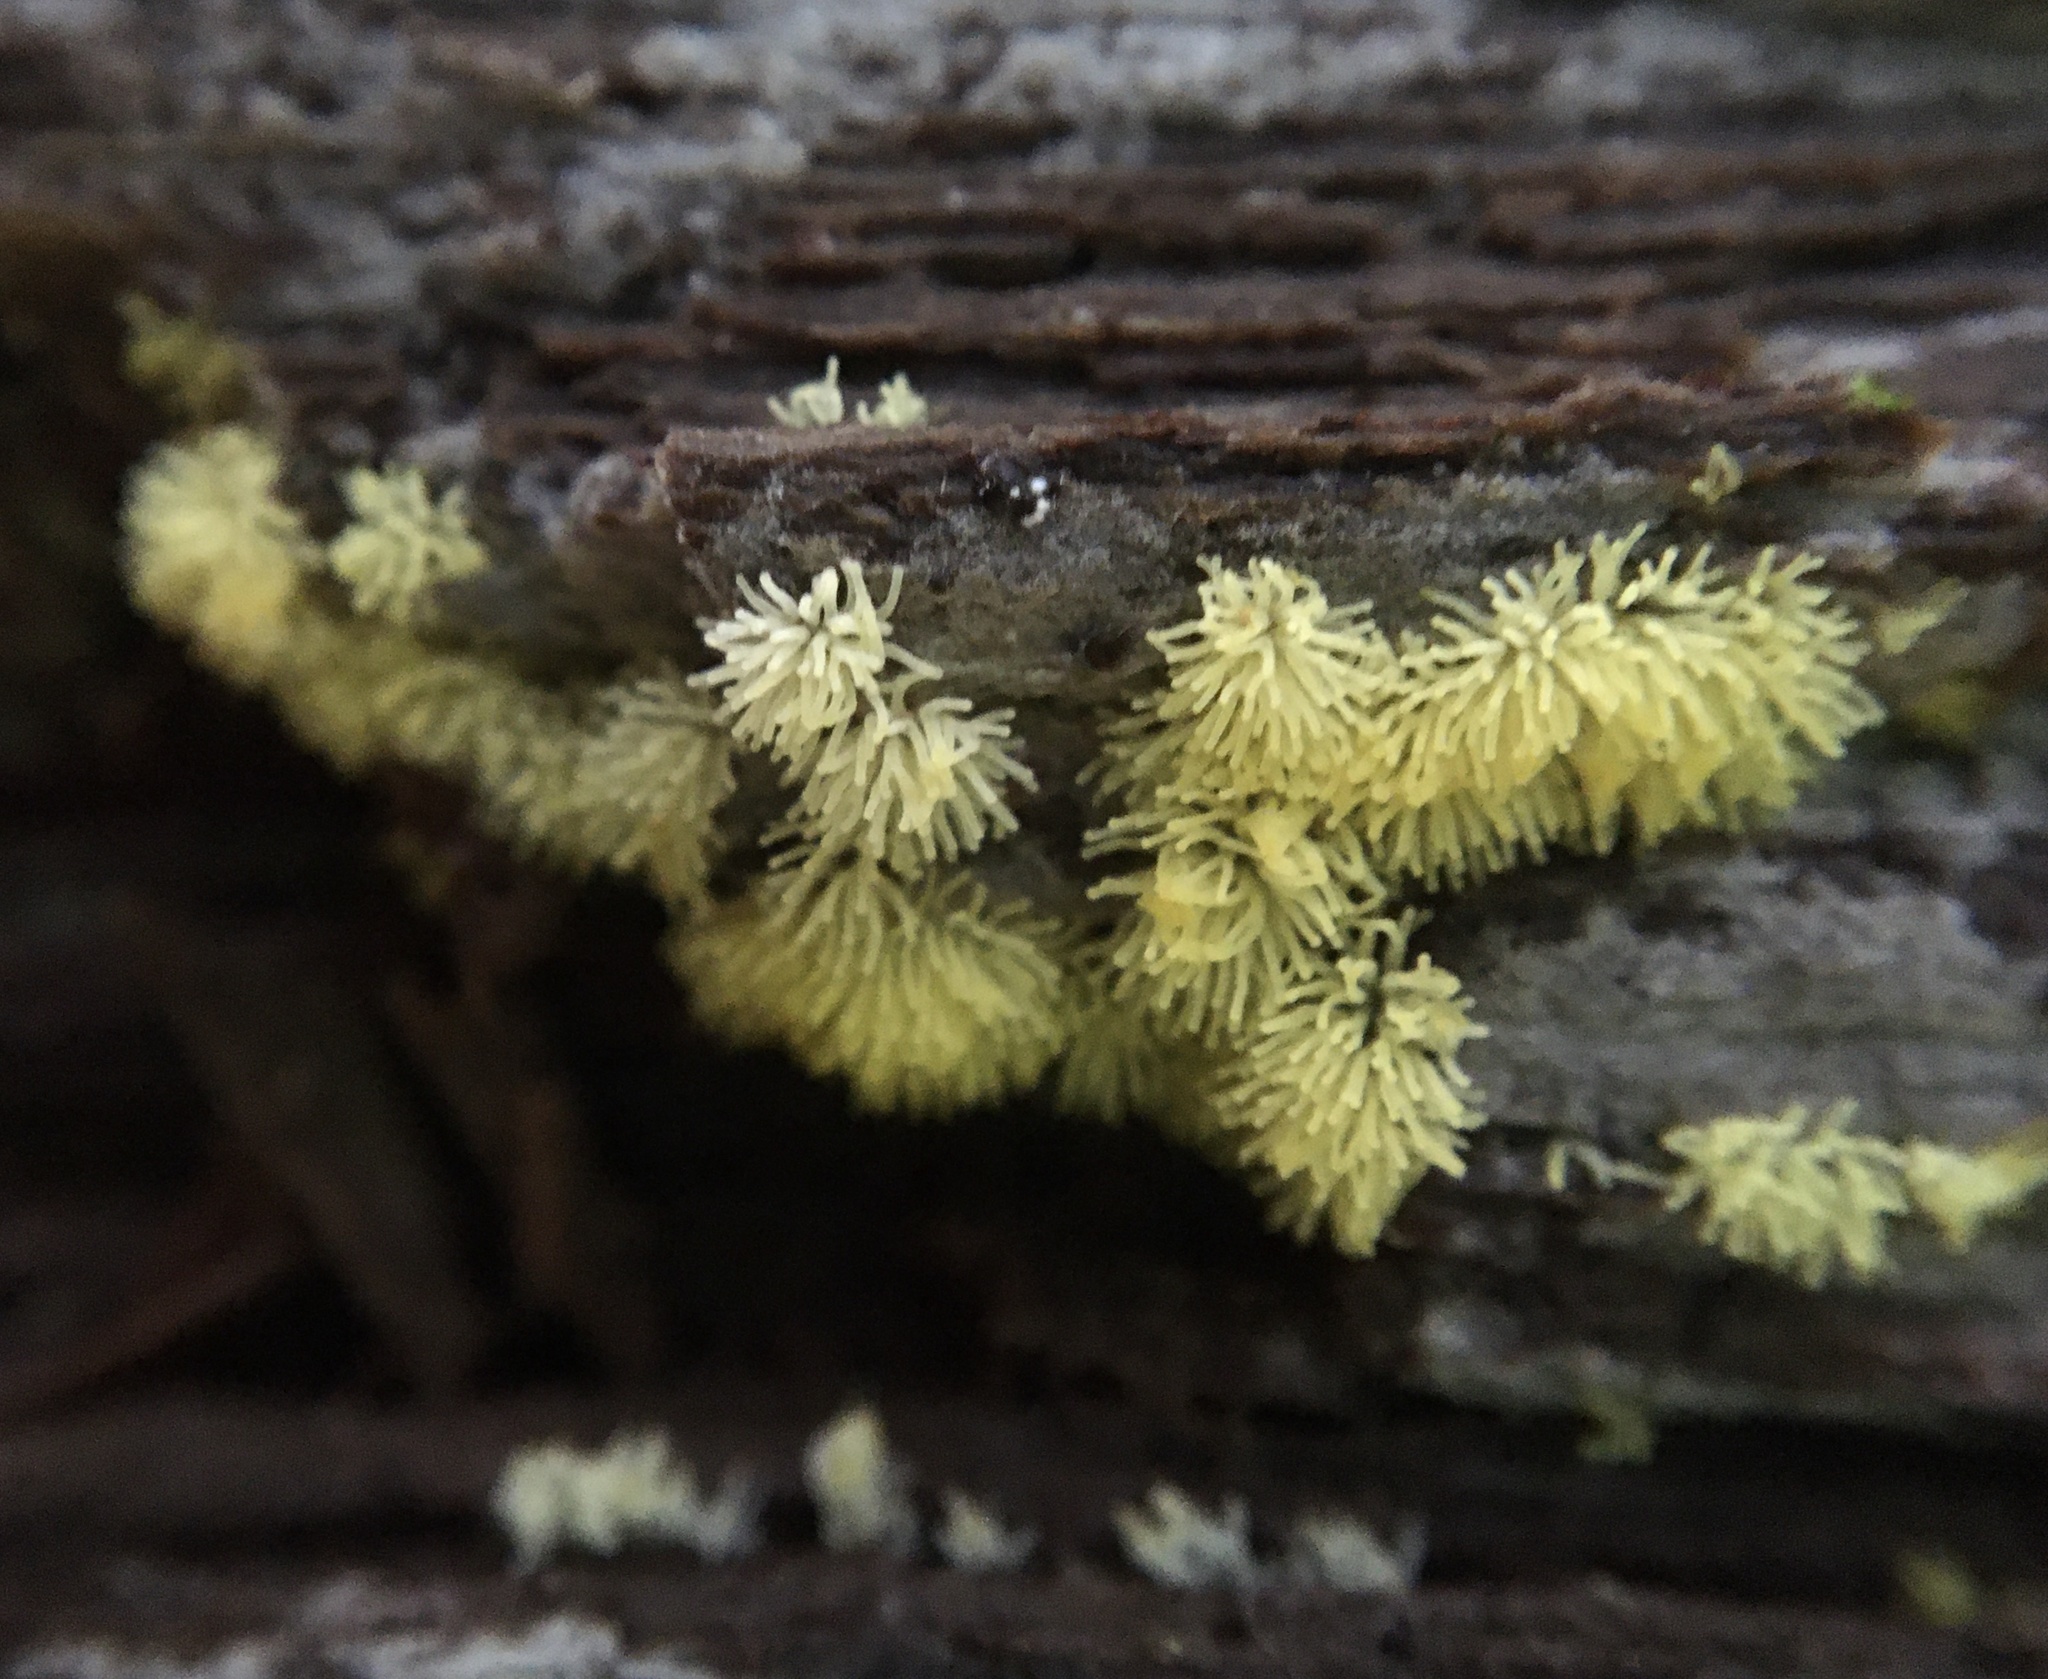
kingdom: Protozoa
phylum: Mycetozoa
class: Protosteliomycetes
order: Ceratiomyxales
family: Ceratiomyxaceae
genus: Ceratiomyxa
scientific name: Ceratiomyxa fruticulosa
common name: Honeycomb coral slime mold
